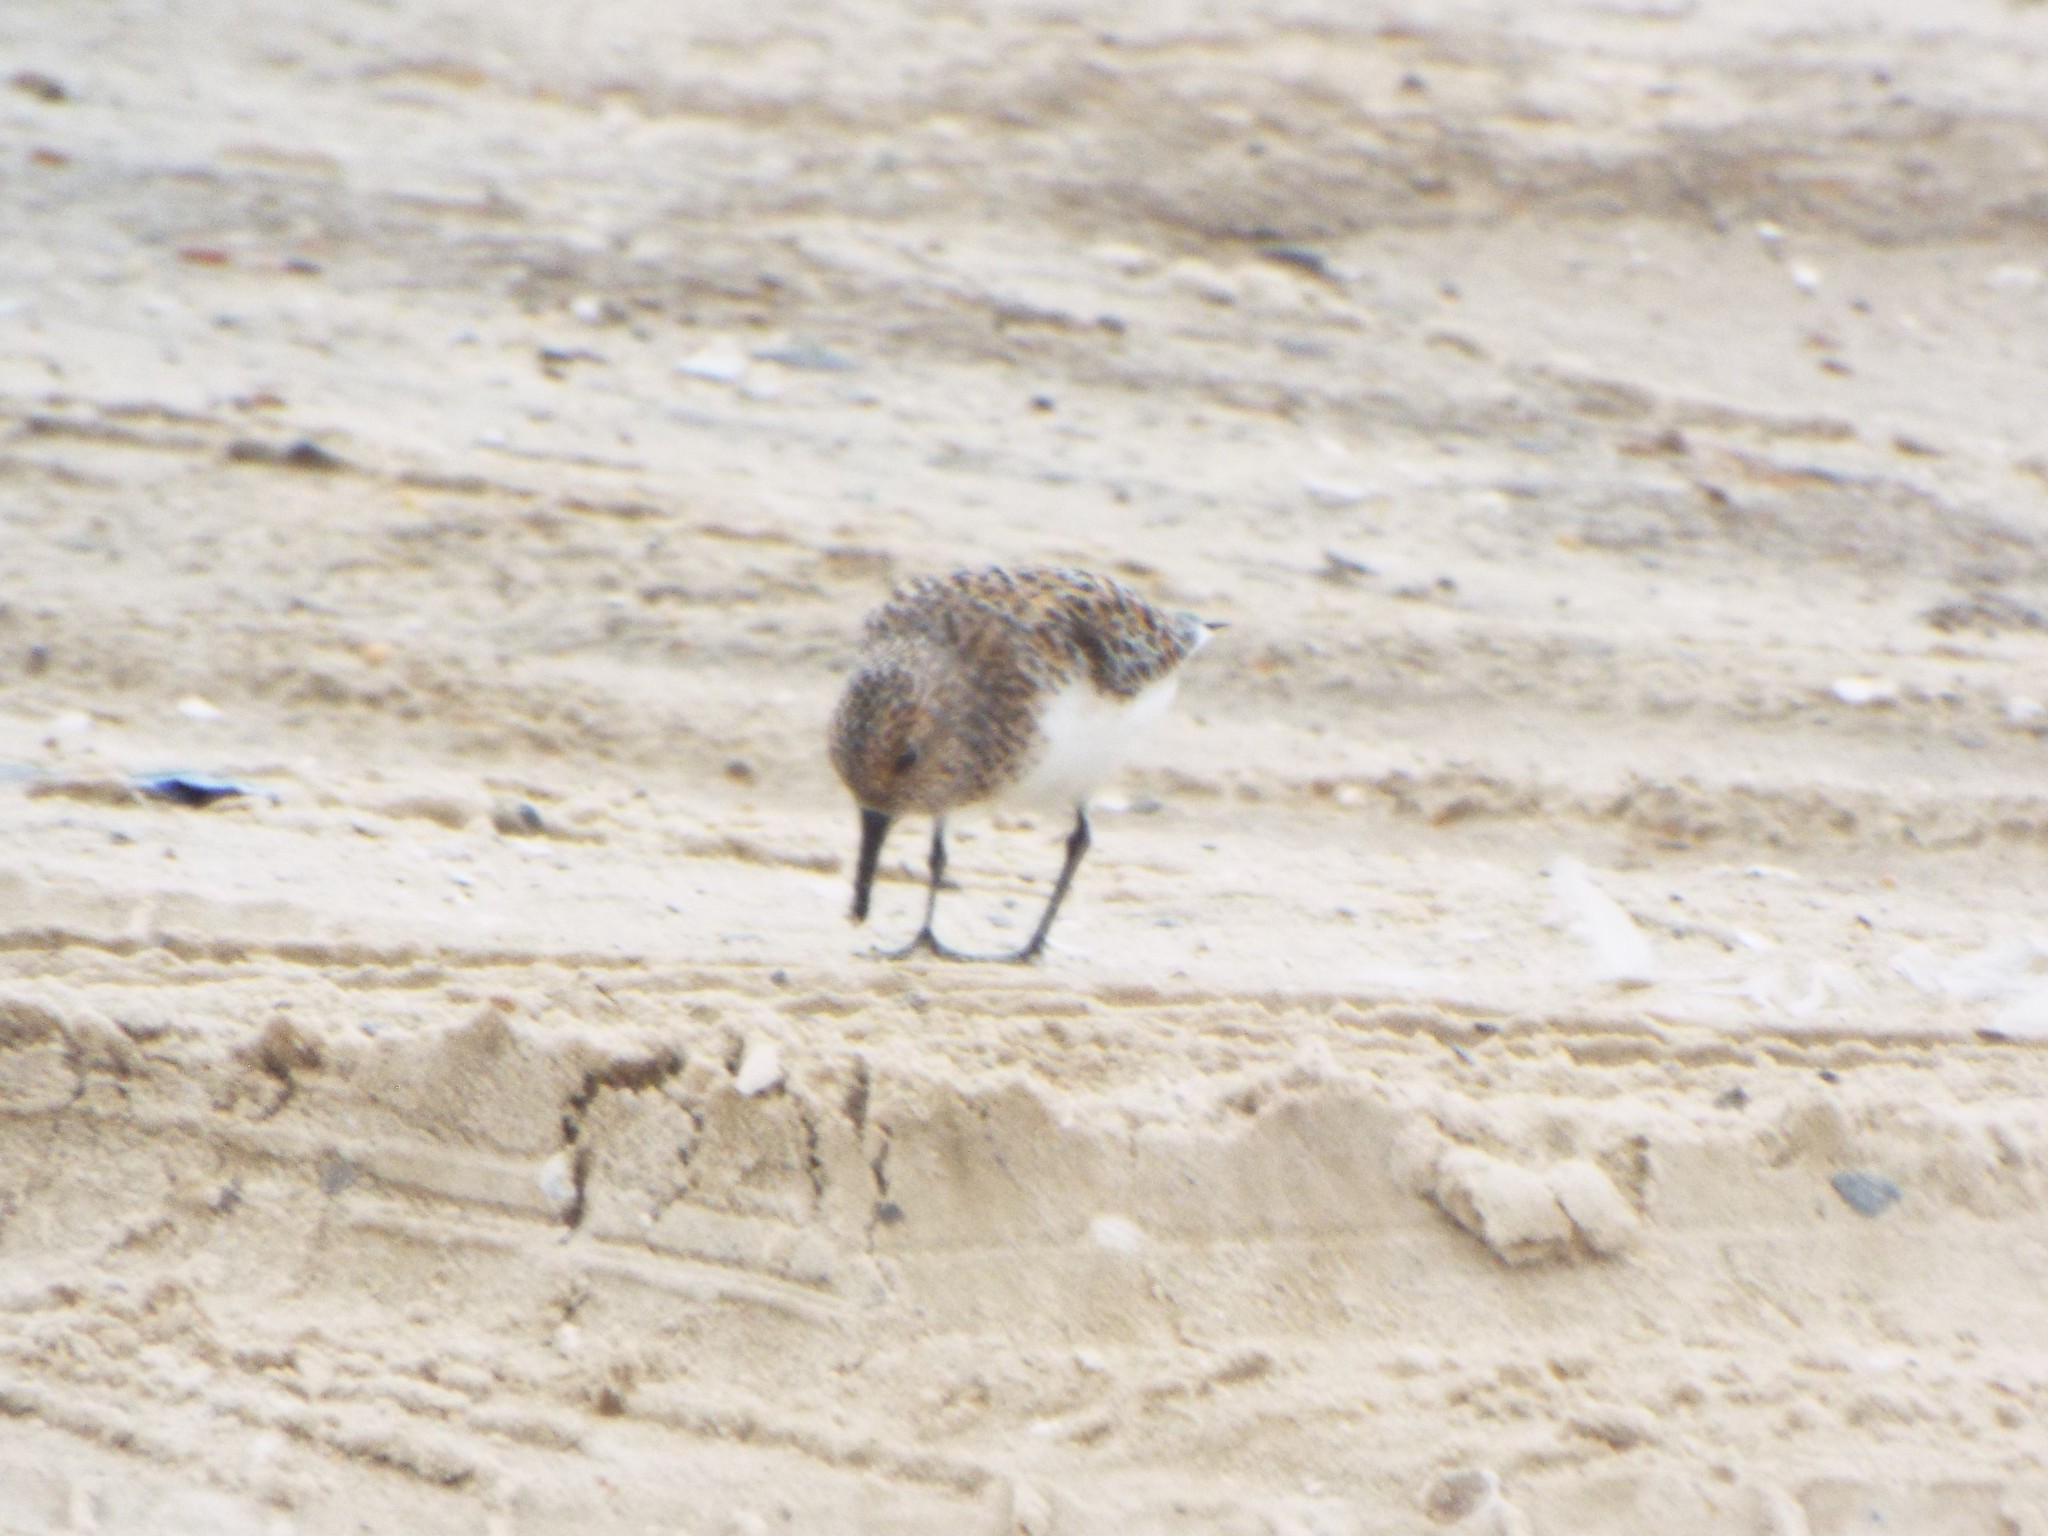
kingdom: Animalia
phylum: Chordata
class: Aves
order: Charadriiformes
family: Scolopacidae
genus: Calidris
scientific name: Calidris alba
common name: Sanderling
